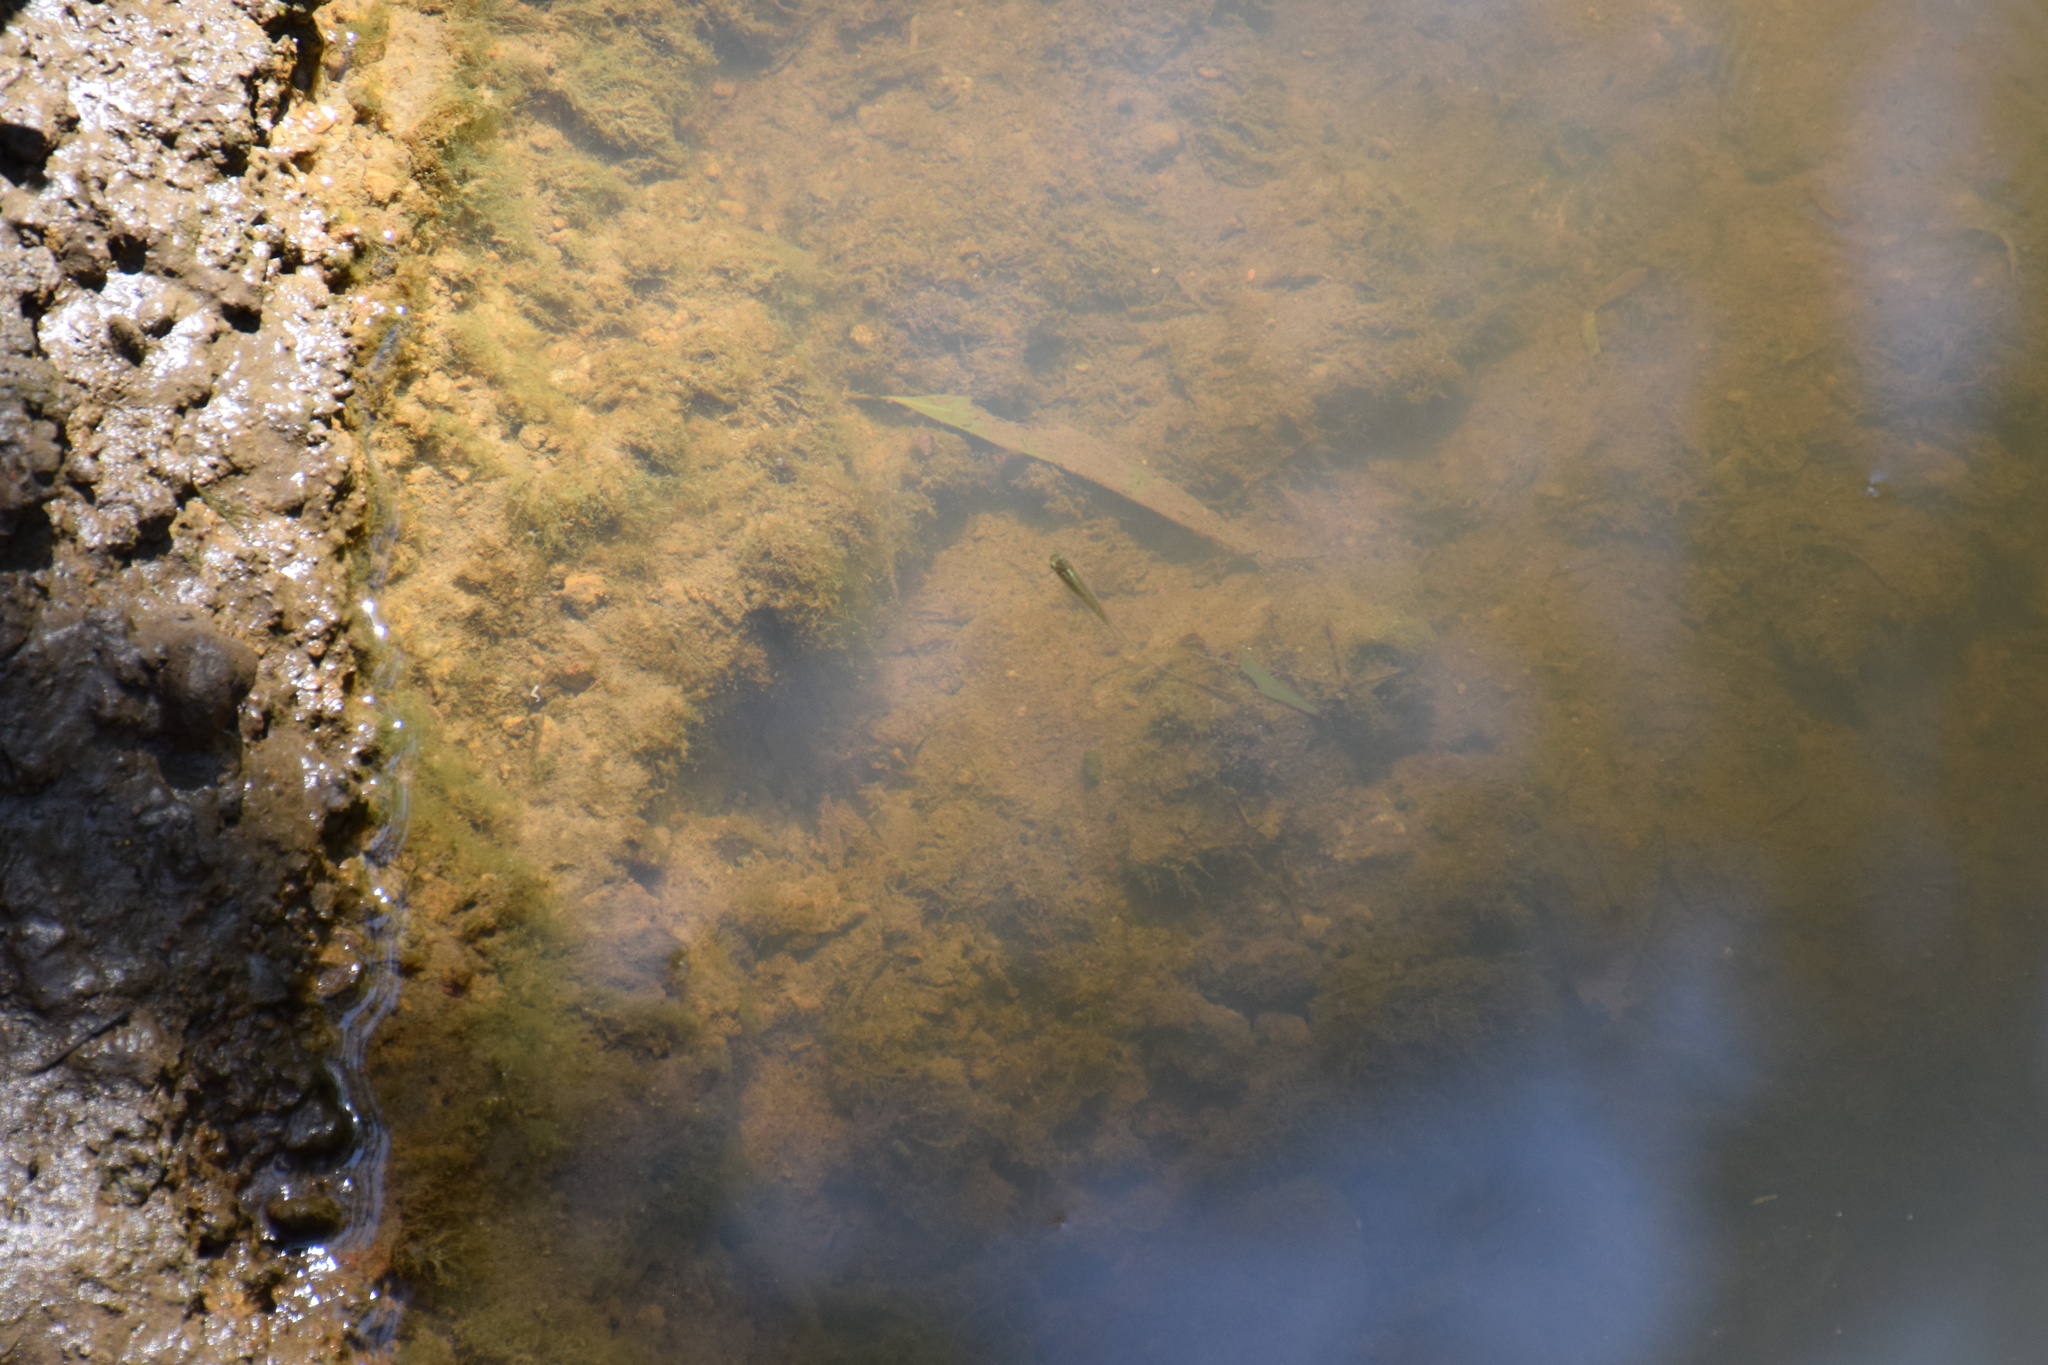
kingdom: Animalia
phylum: Chordata
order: Cyprinodontiformes
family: Poeciliidae
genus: Gambusia
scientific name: Gambusia holbrooki
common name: Eastern mosquitofish
